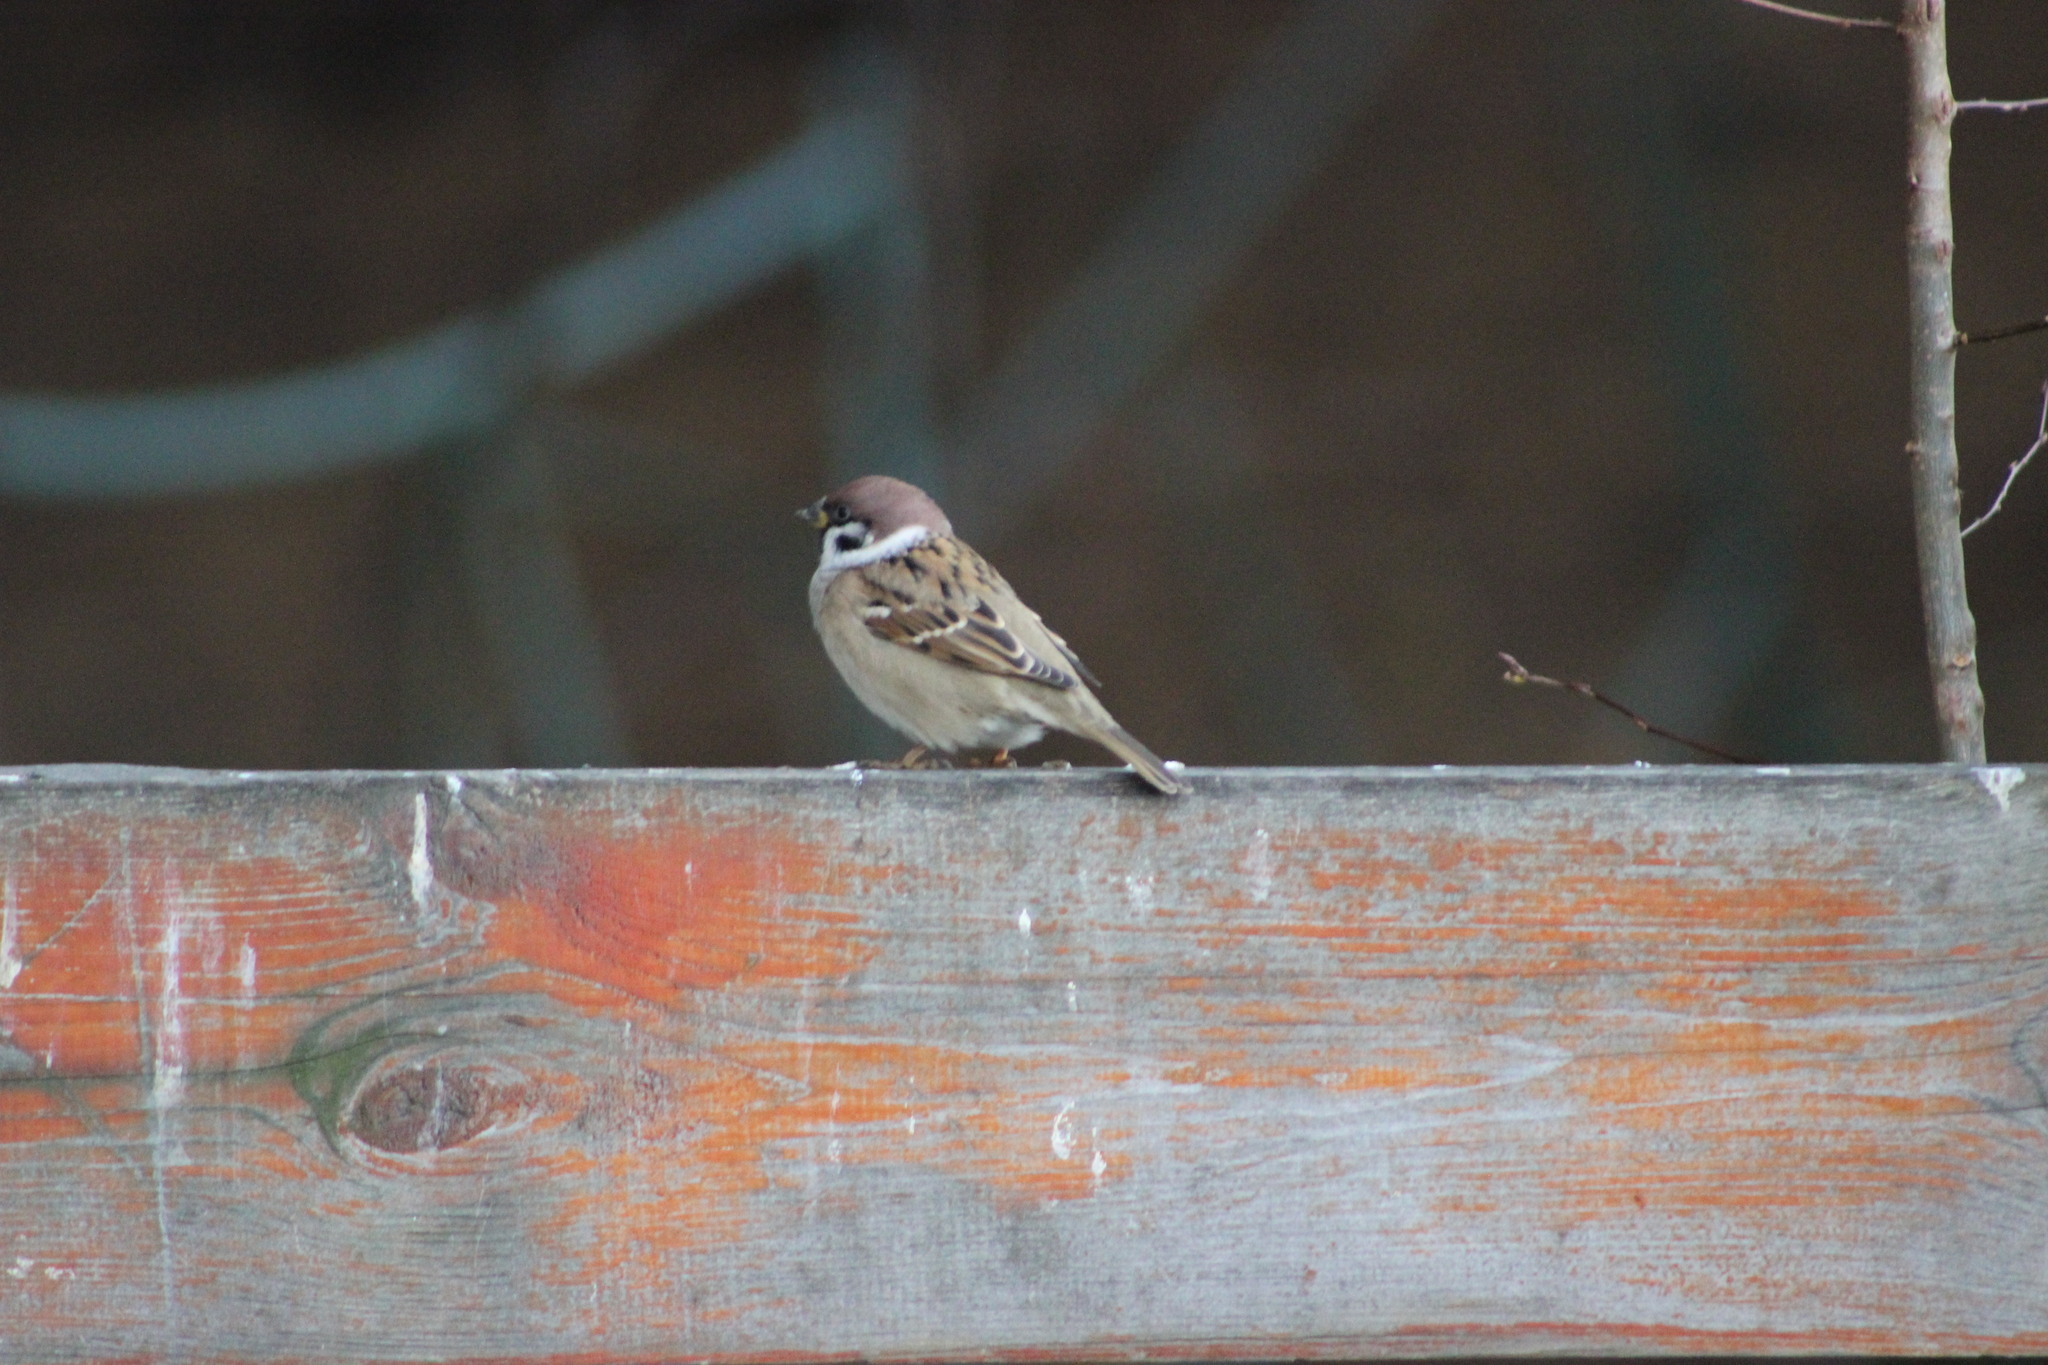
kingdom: Animalia
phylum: Chordata
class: Aves
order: Passeriformes
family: Passeridae
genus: Passer
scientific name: Passer montanus
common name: Eurasian tree sparrow
